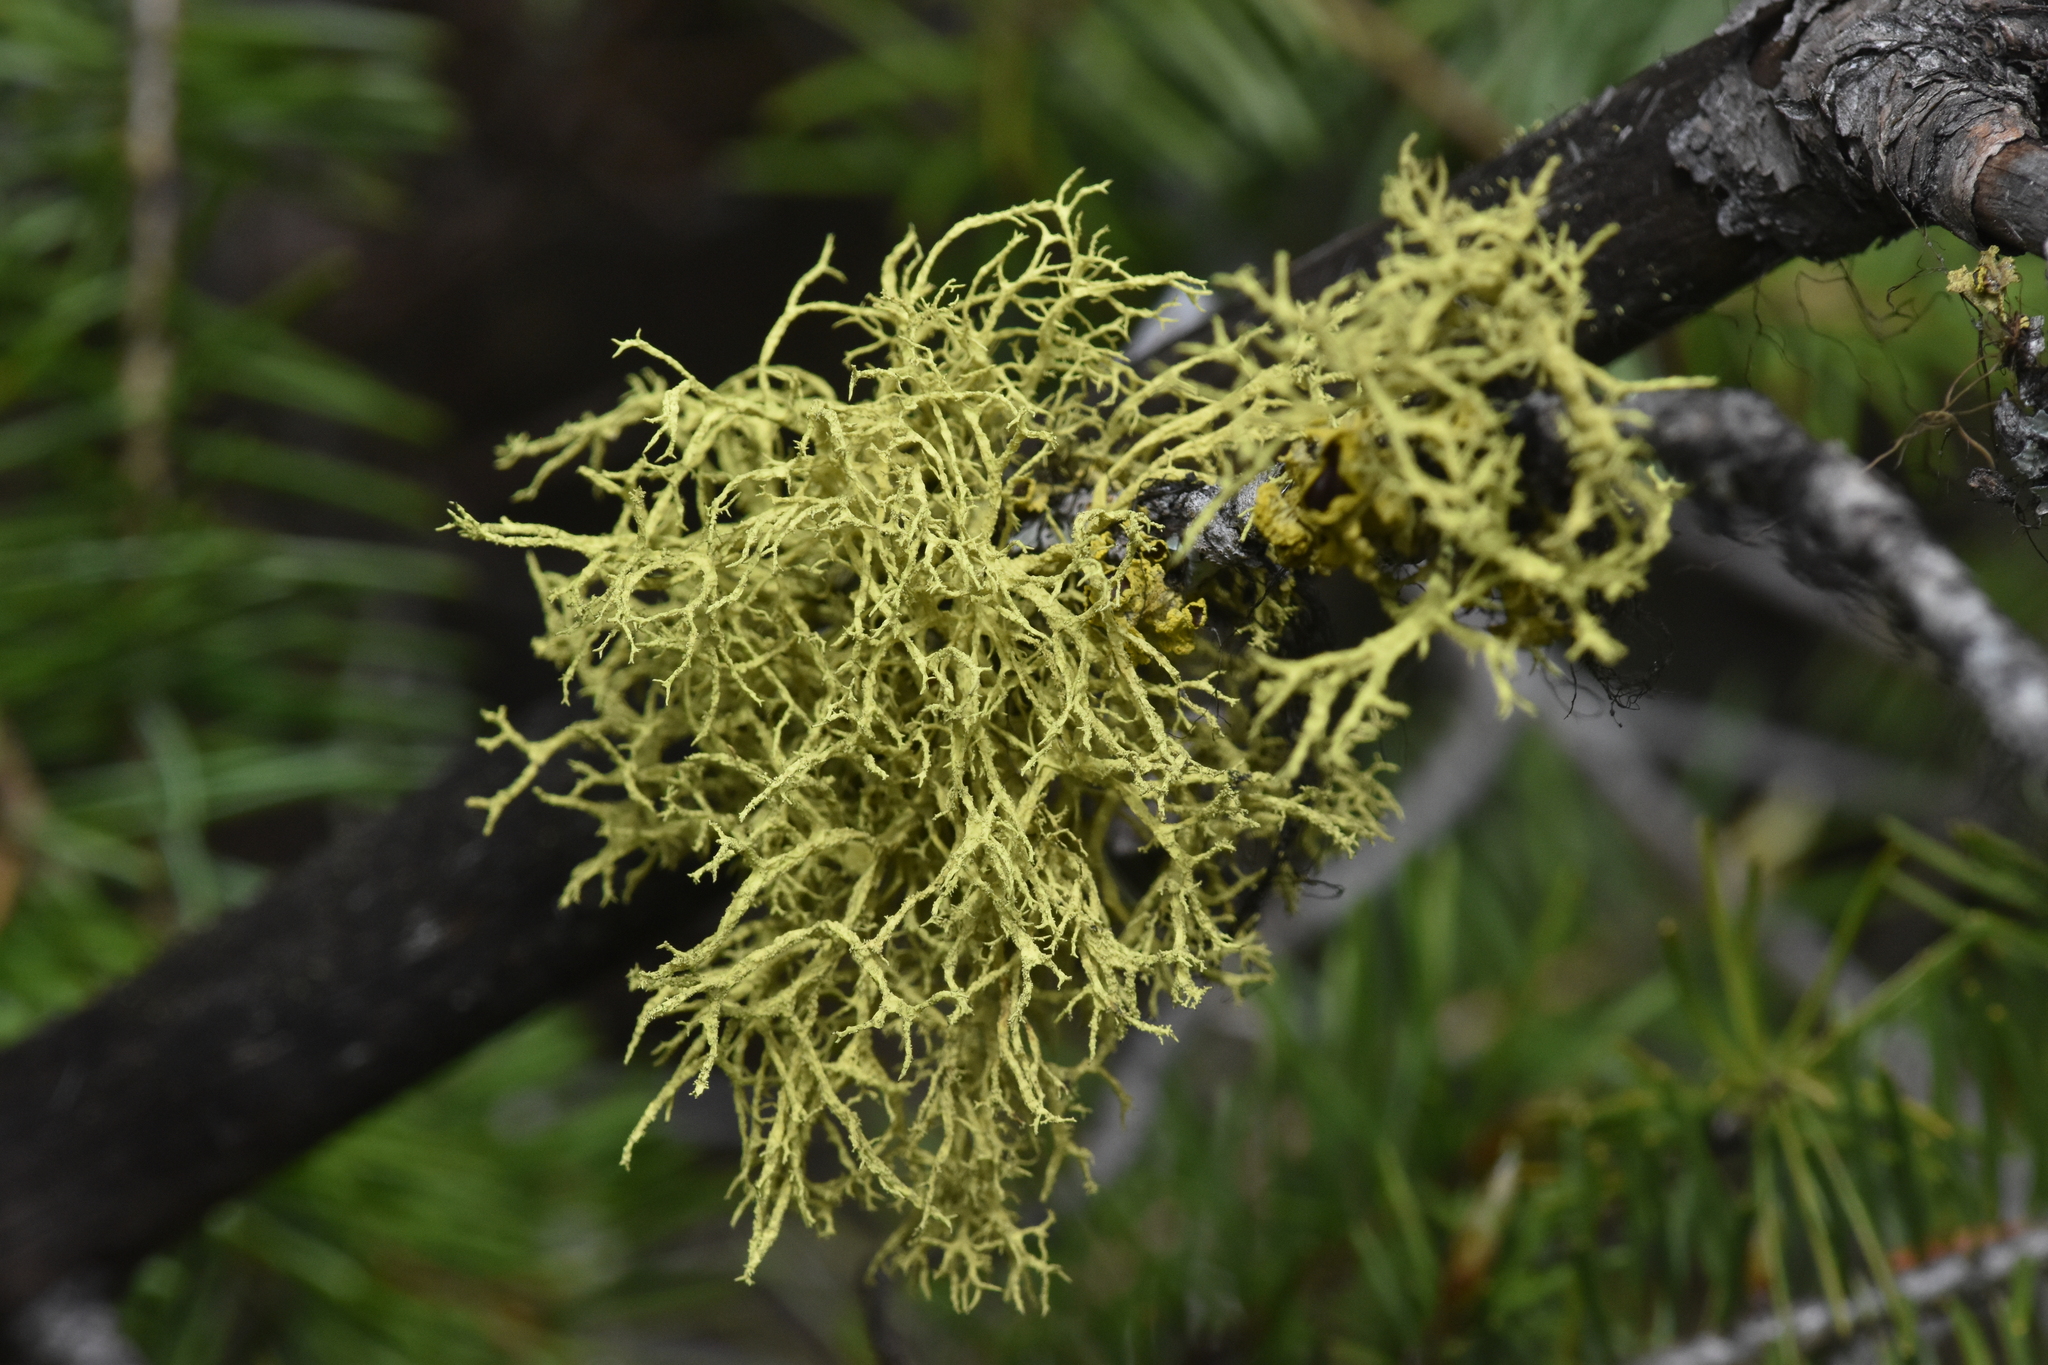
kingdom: Fungi
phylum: Ascomycota
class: Lecanoromycetes
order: Lecanorales
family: Parmeliaceae
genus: Letharia
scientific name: Letharia vulpina
